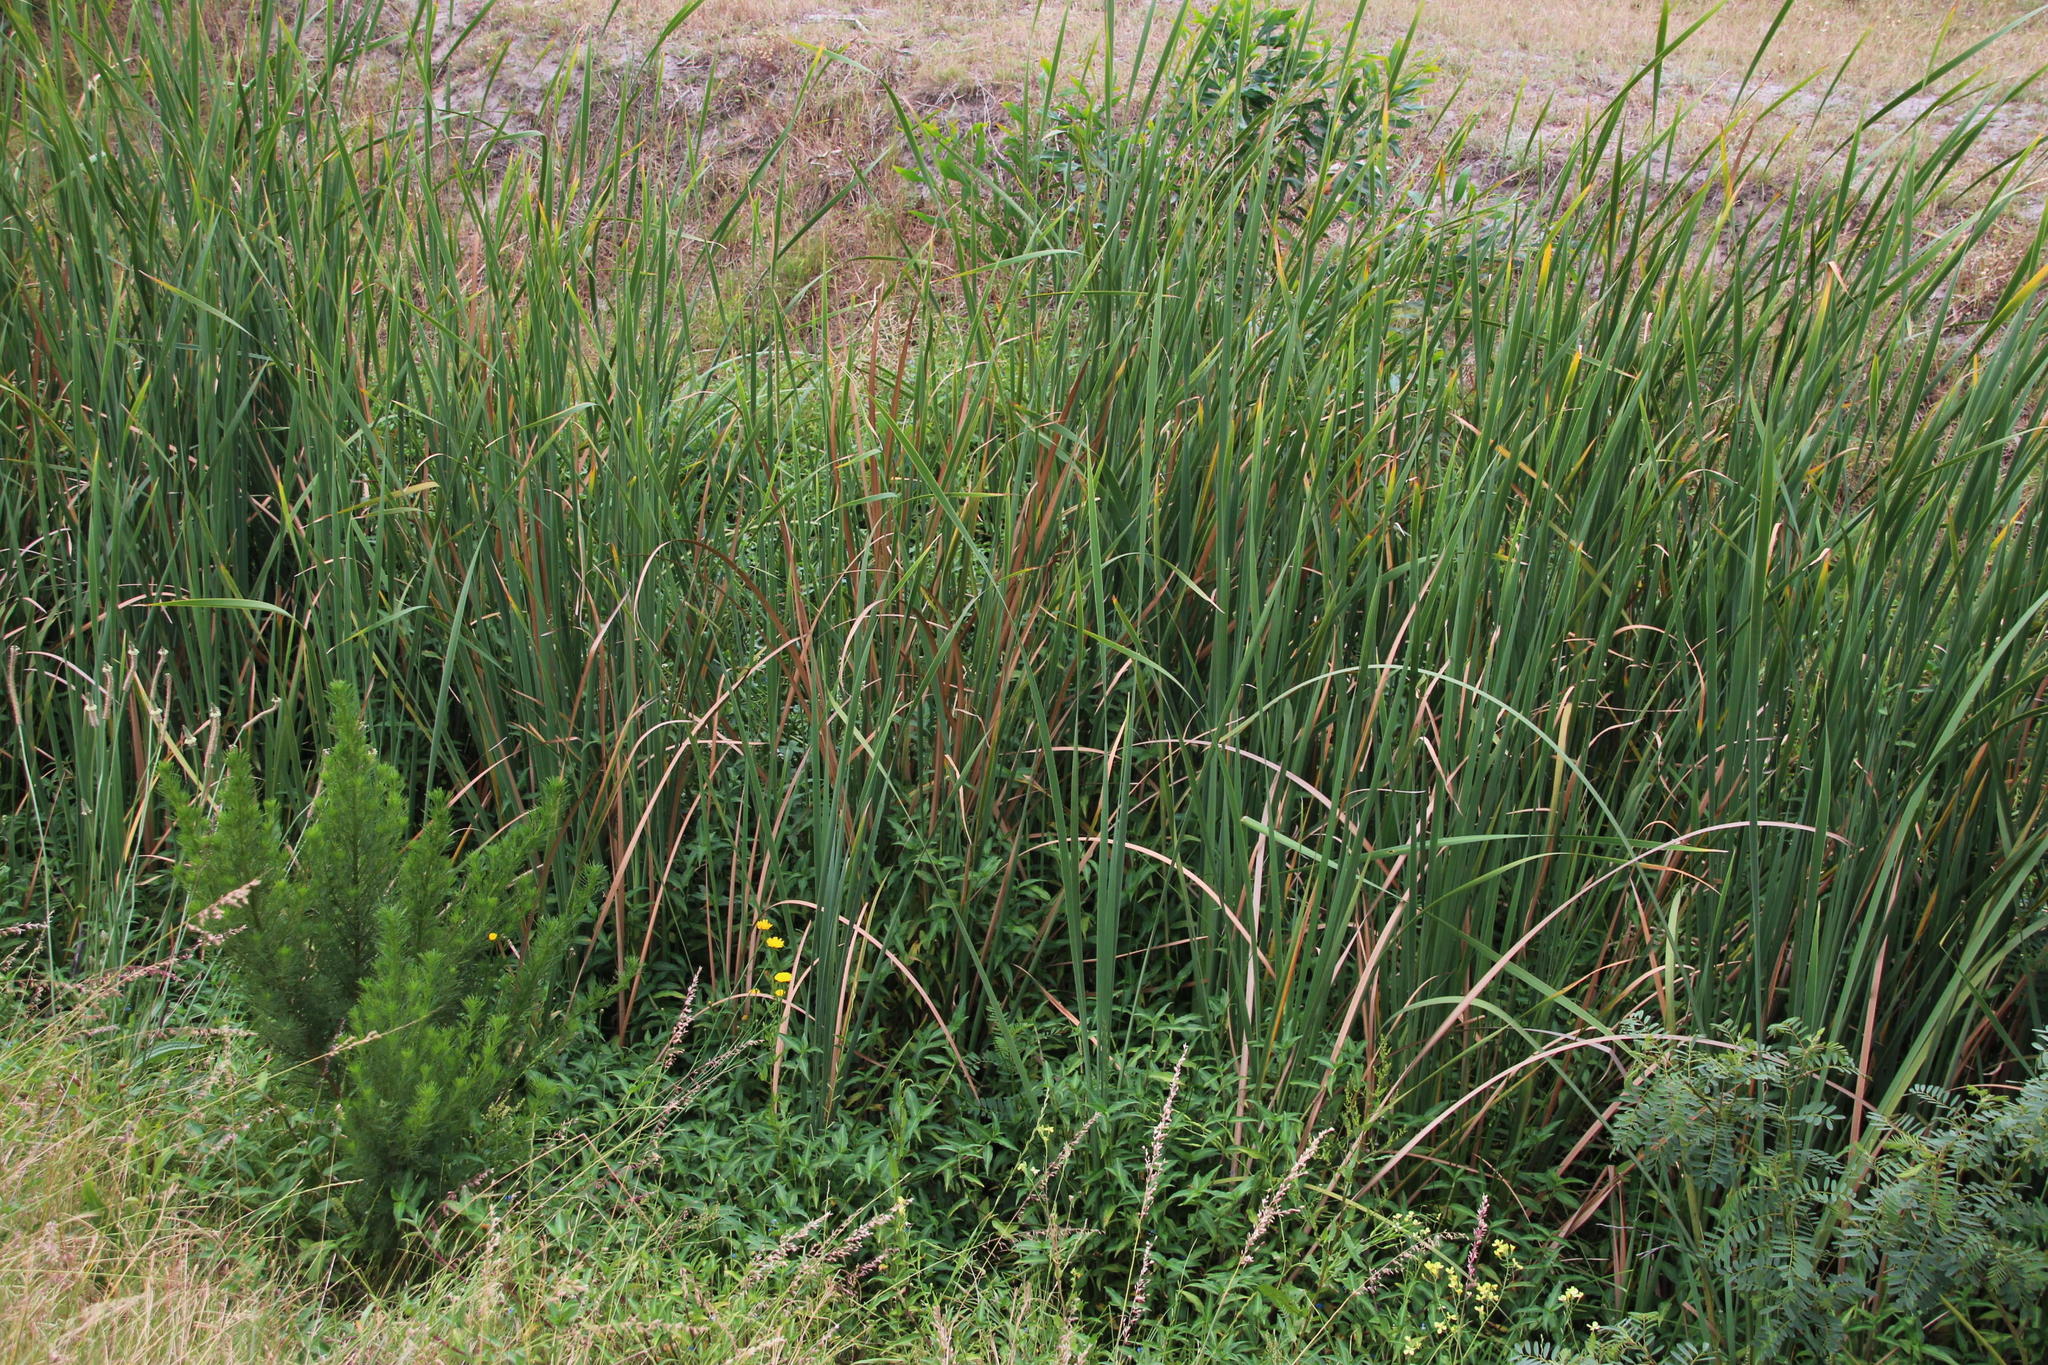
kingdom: Plantae
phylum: Tracheophyta
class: Liliopsida
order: Poales
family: Typhaceae
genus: Typha
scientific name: Typha capensis
